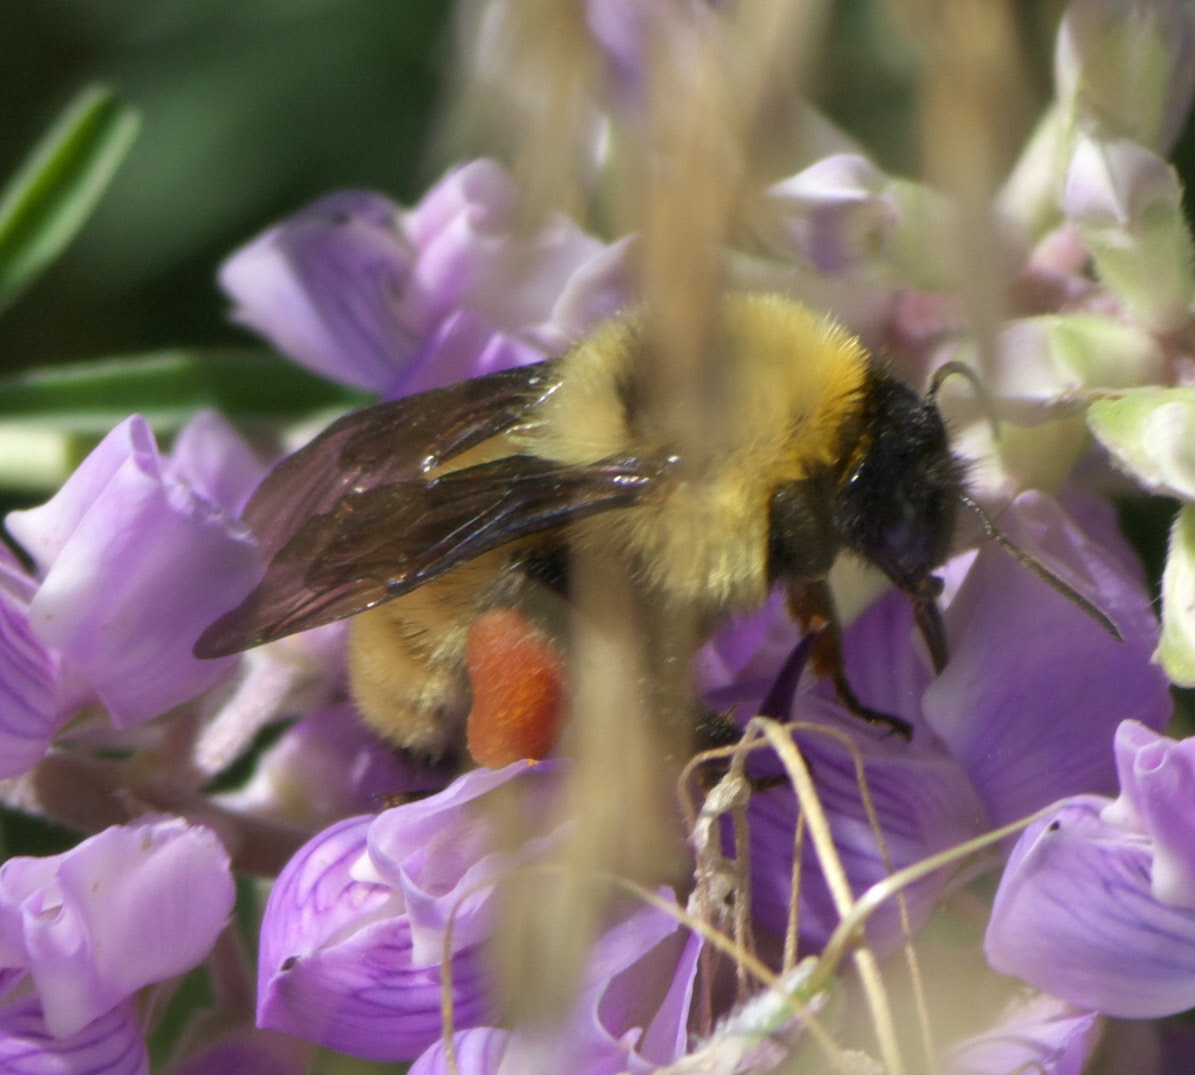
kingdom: Animalia
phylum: Arthropoda
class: Insecta
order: Hymenoptera
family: Apidae
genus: Bombus
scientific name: Bombus fervidus
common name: Yellow bumble bee
